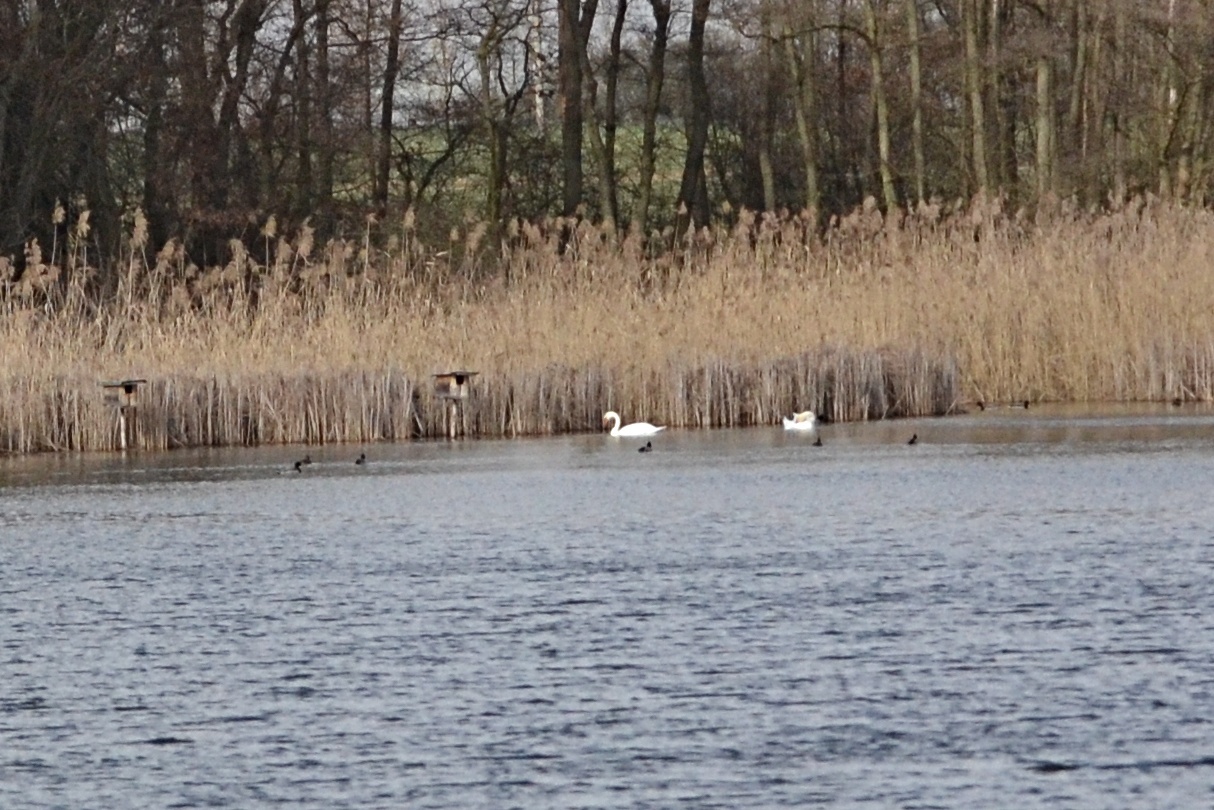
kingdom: Animalia
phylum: Chordata
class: Aves
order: Anseriformes
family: Anatidae
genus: Cygnus
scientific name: Cygnus olor
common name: Mute swan
